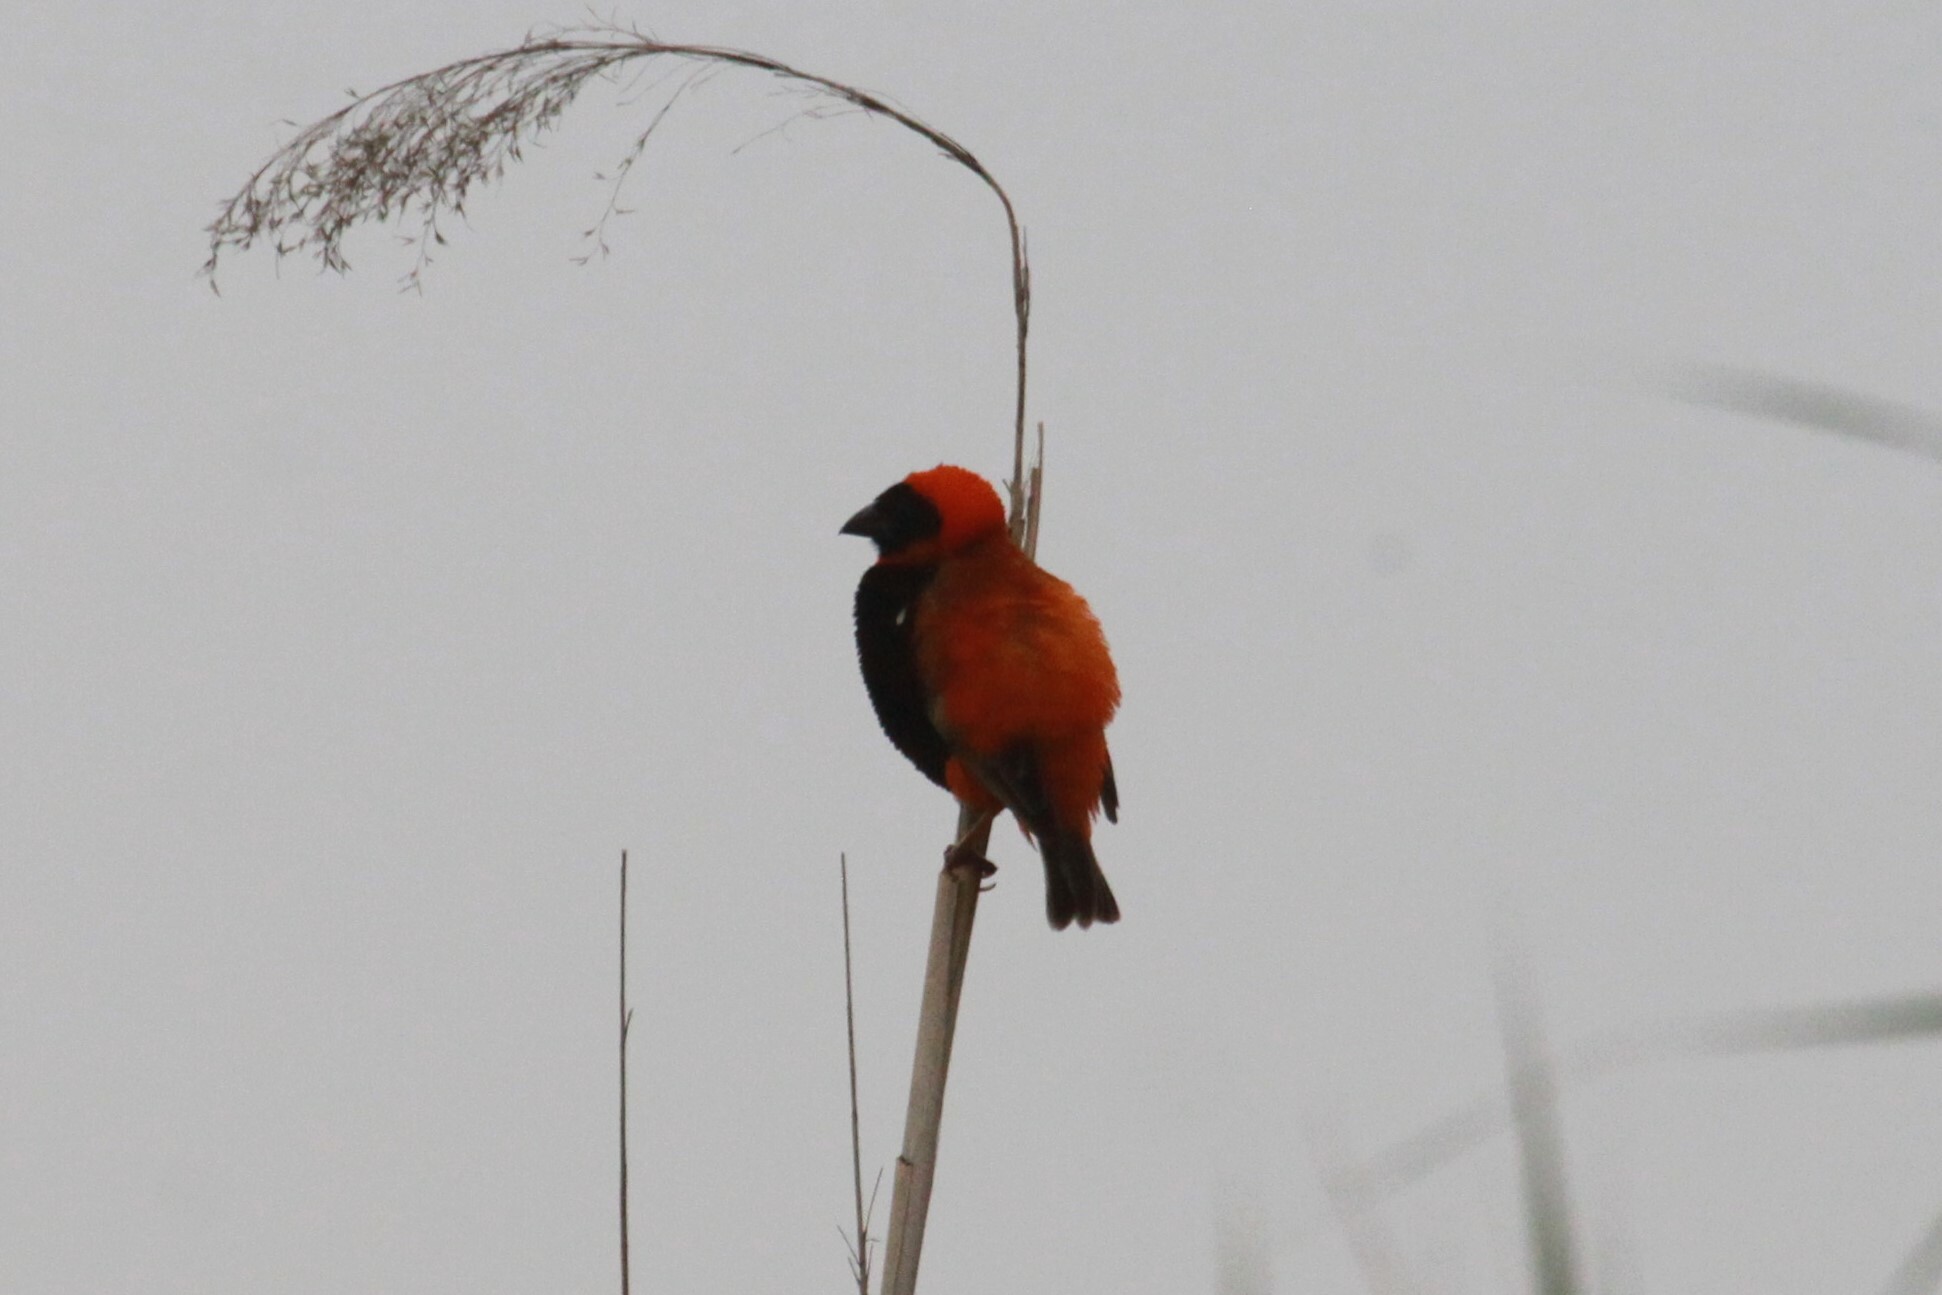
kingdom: Animalia
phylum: Chordata
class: Aves
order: Passeriformes
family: Ploceidae
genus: Euplectes
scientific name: Euplectes orix
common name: Southern red bishop
